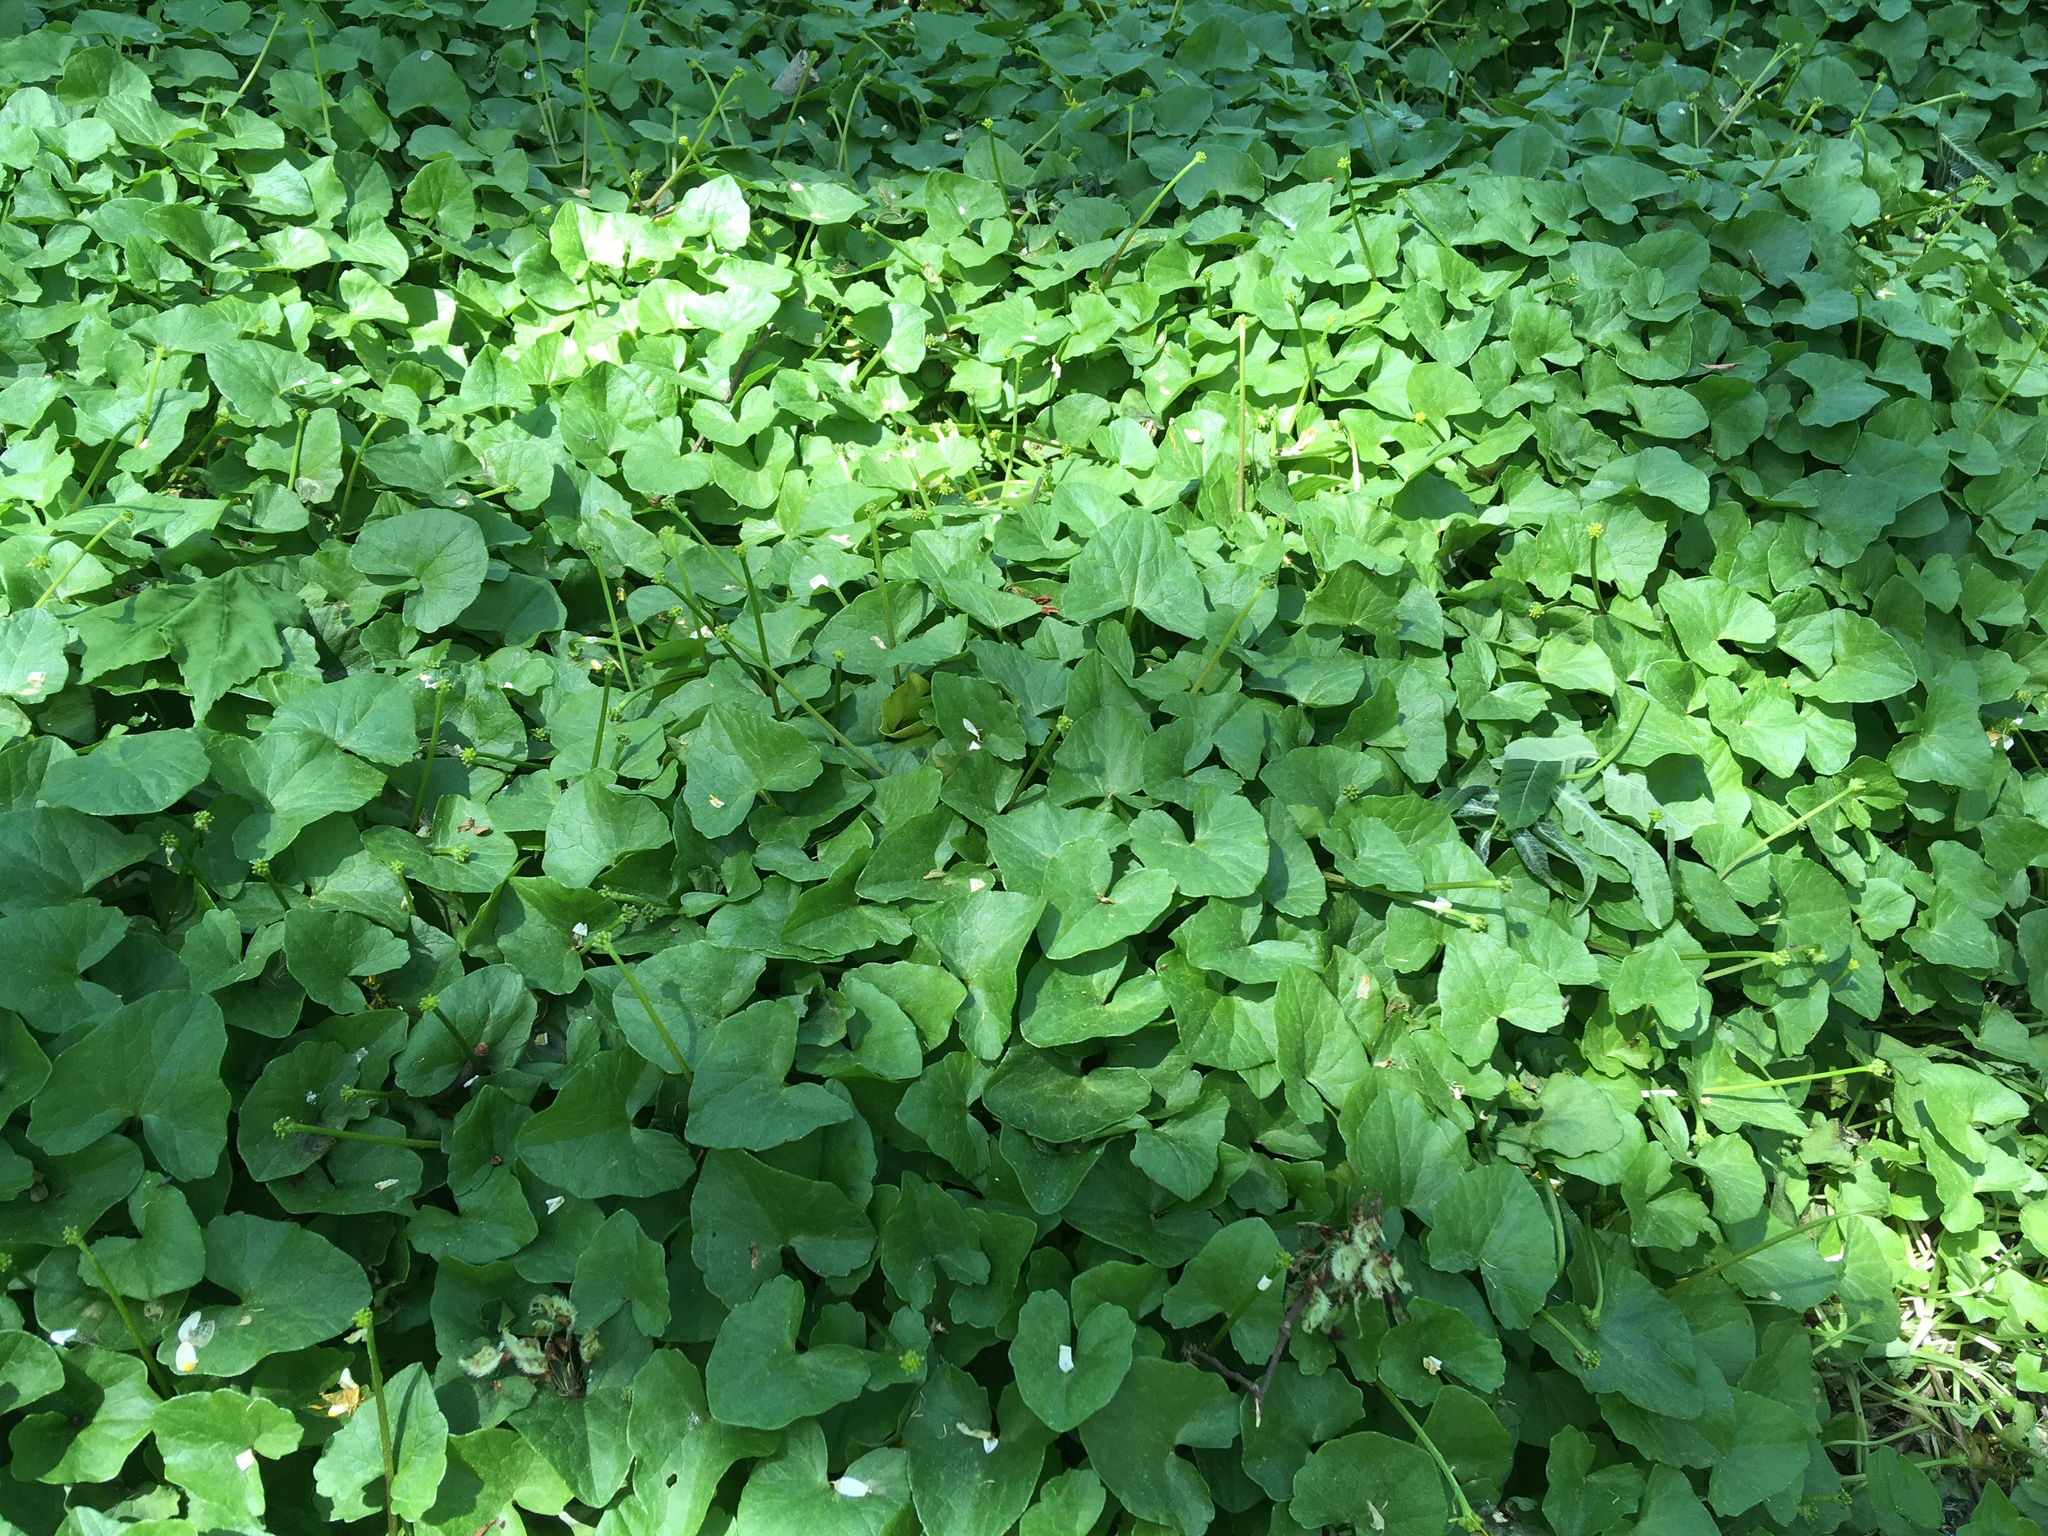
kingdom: Plantae
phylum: Tracheophyta
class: Magnoliopsida
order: Ranunculales
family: Ranunculaceae
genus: Ficaria
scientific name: Ficaria verna
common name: Lesser celandine
